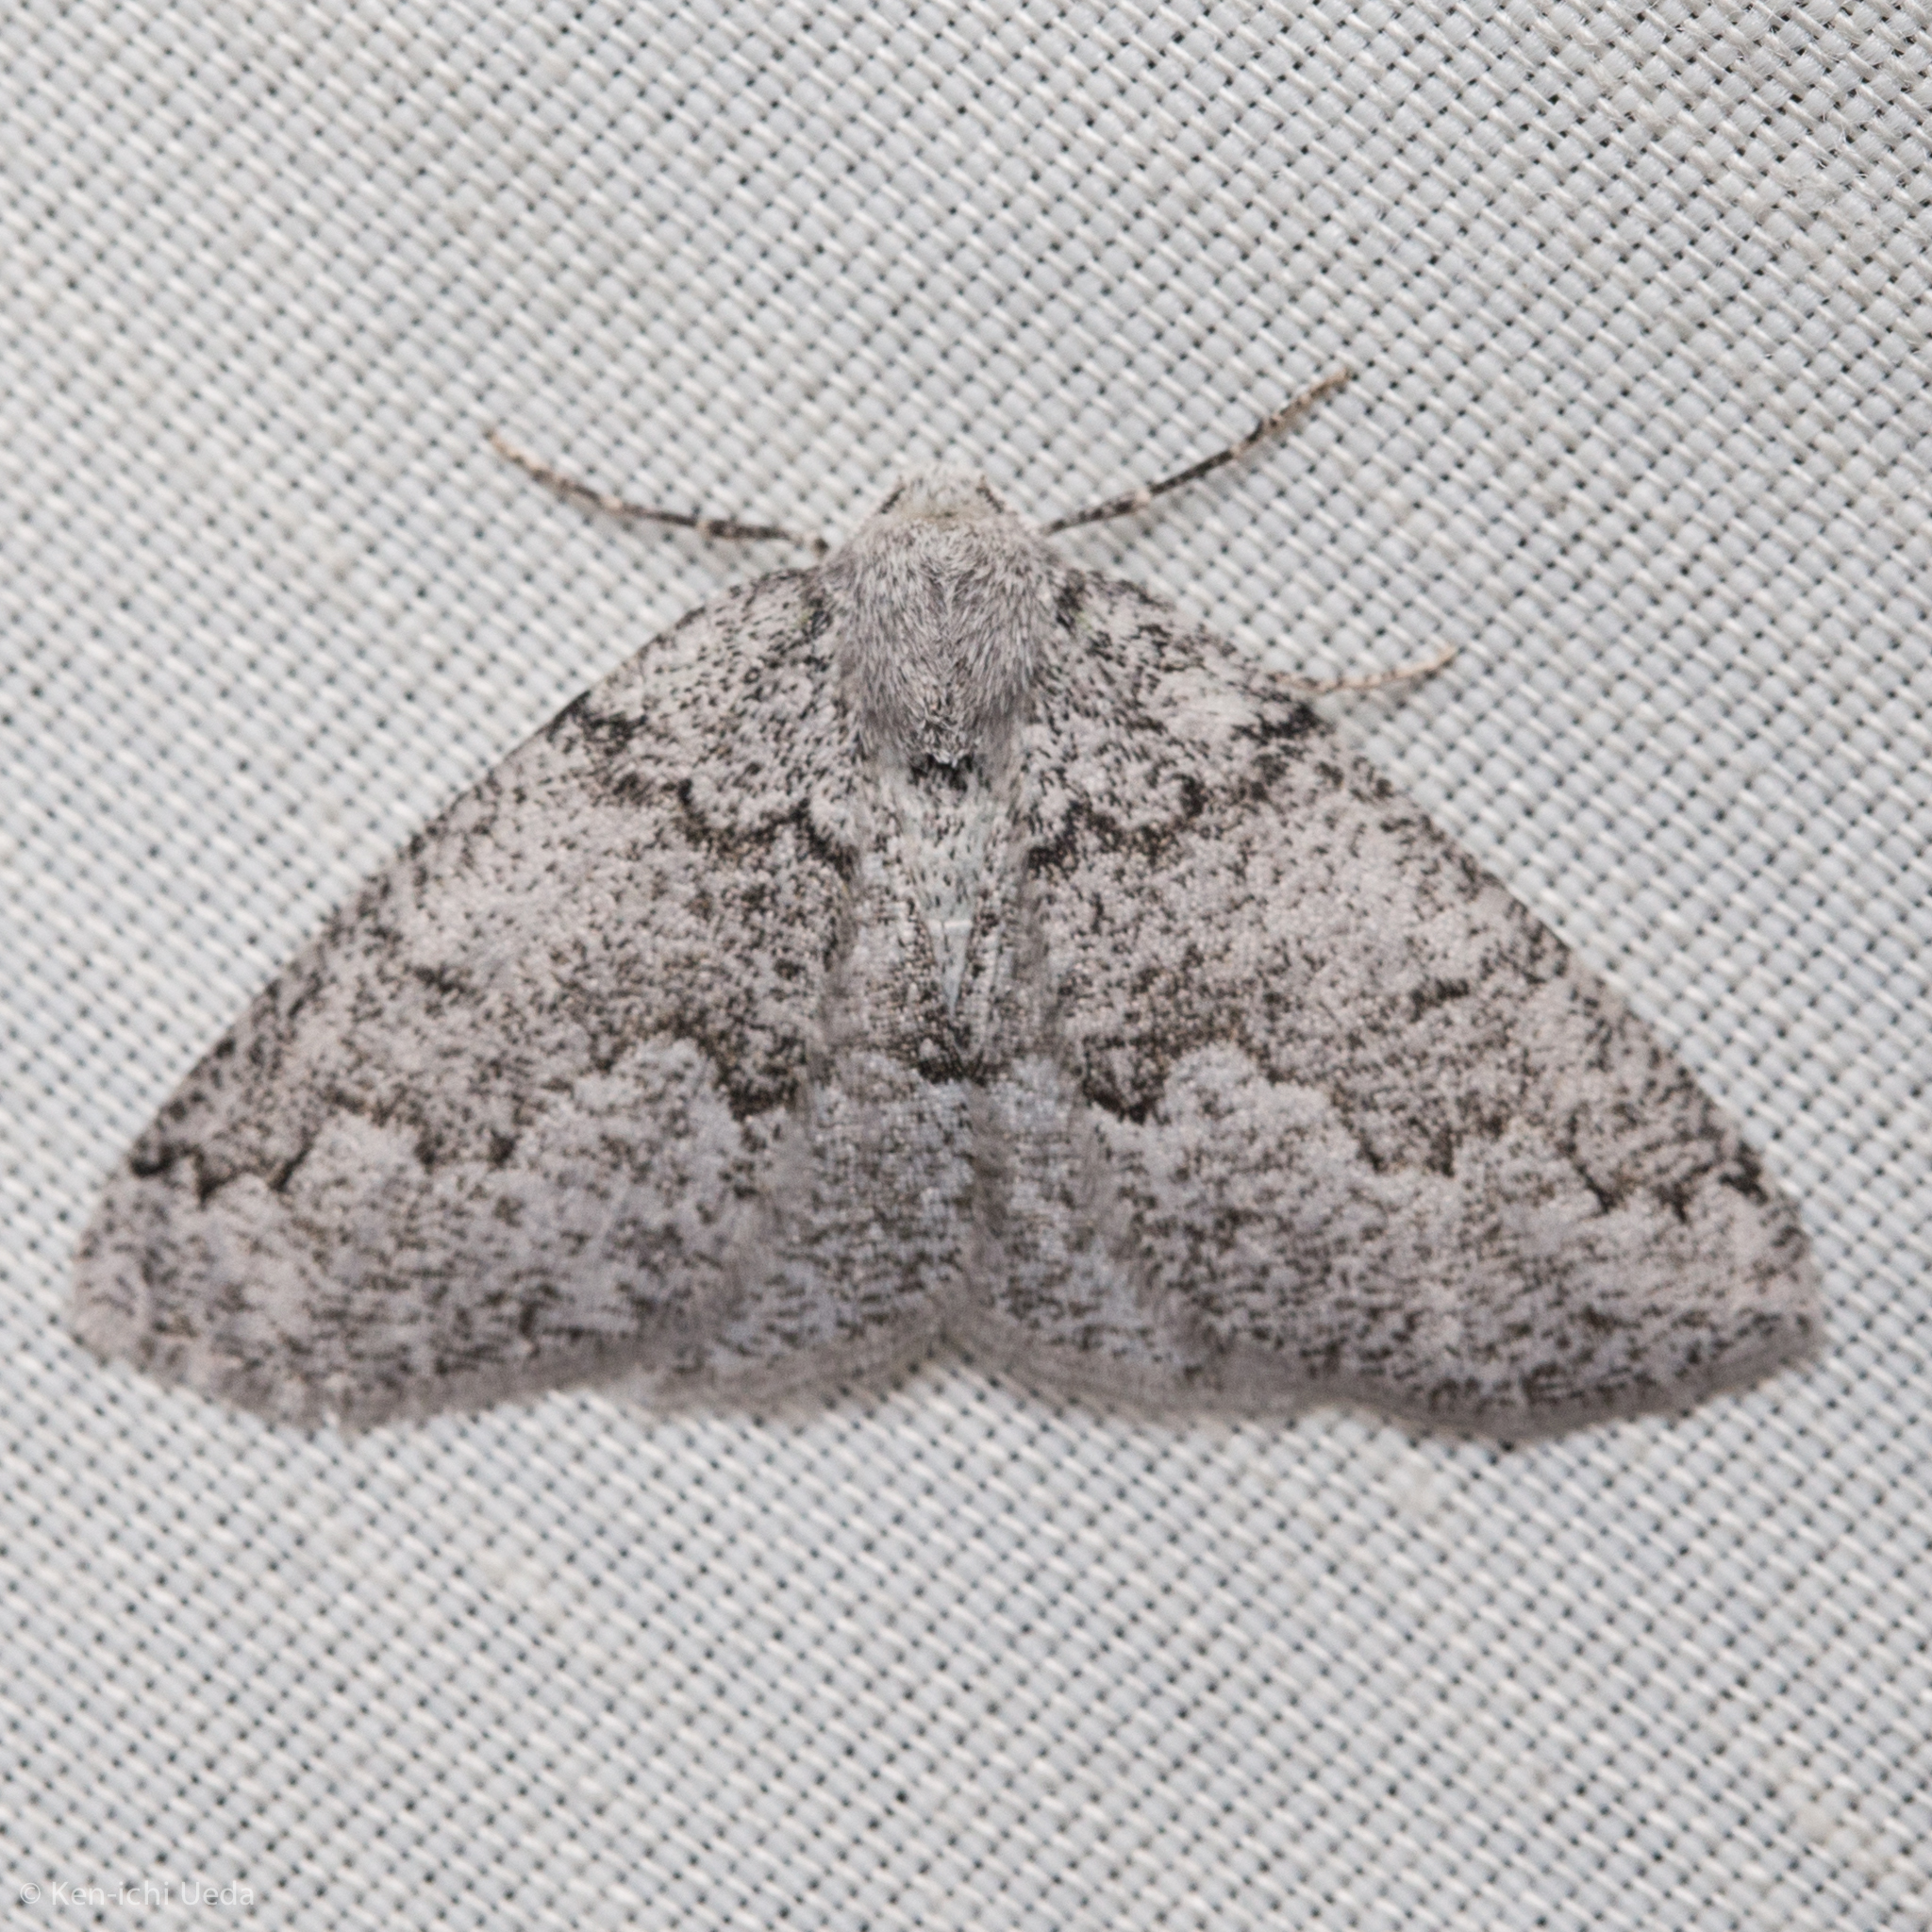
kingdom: Animalia
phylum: Arthropoda
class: Insecta
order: Lepidoptera
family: Geometridae
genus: Sabulodes
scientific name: Sabulodes
